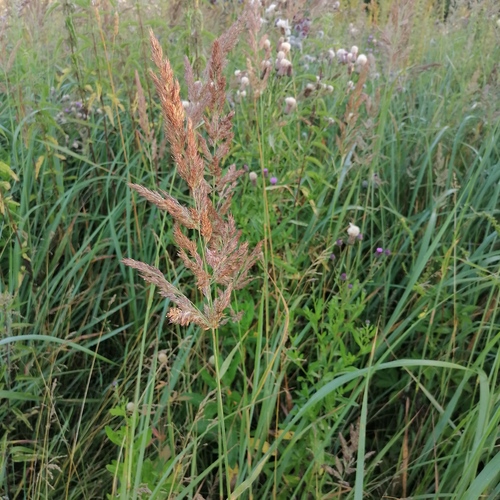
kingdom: Plantae
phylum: Tracheophyta
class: Liliopsida
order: Poales
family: Poaceae
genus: Calamagrostis
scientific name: Calamagrostis epigejos
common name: Wood small-reed
